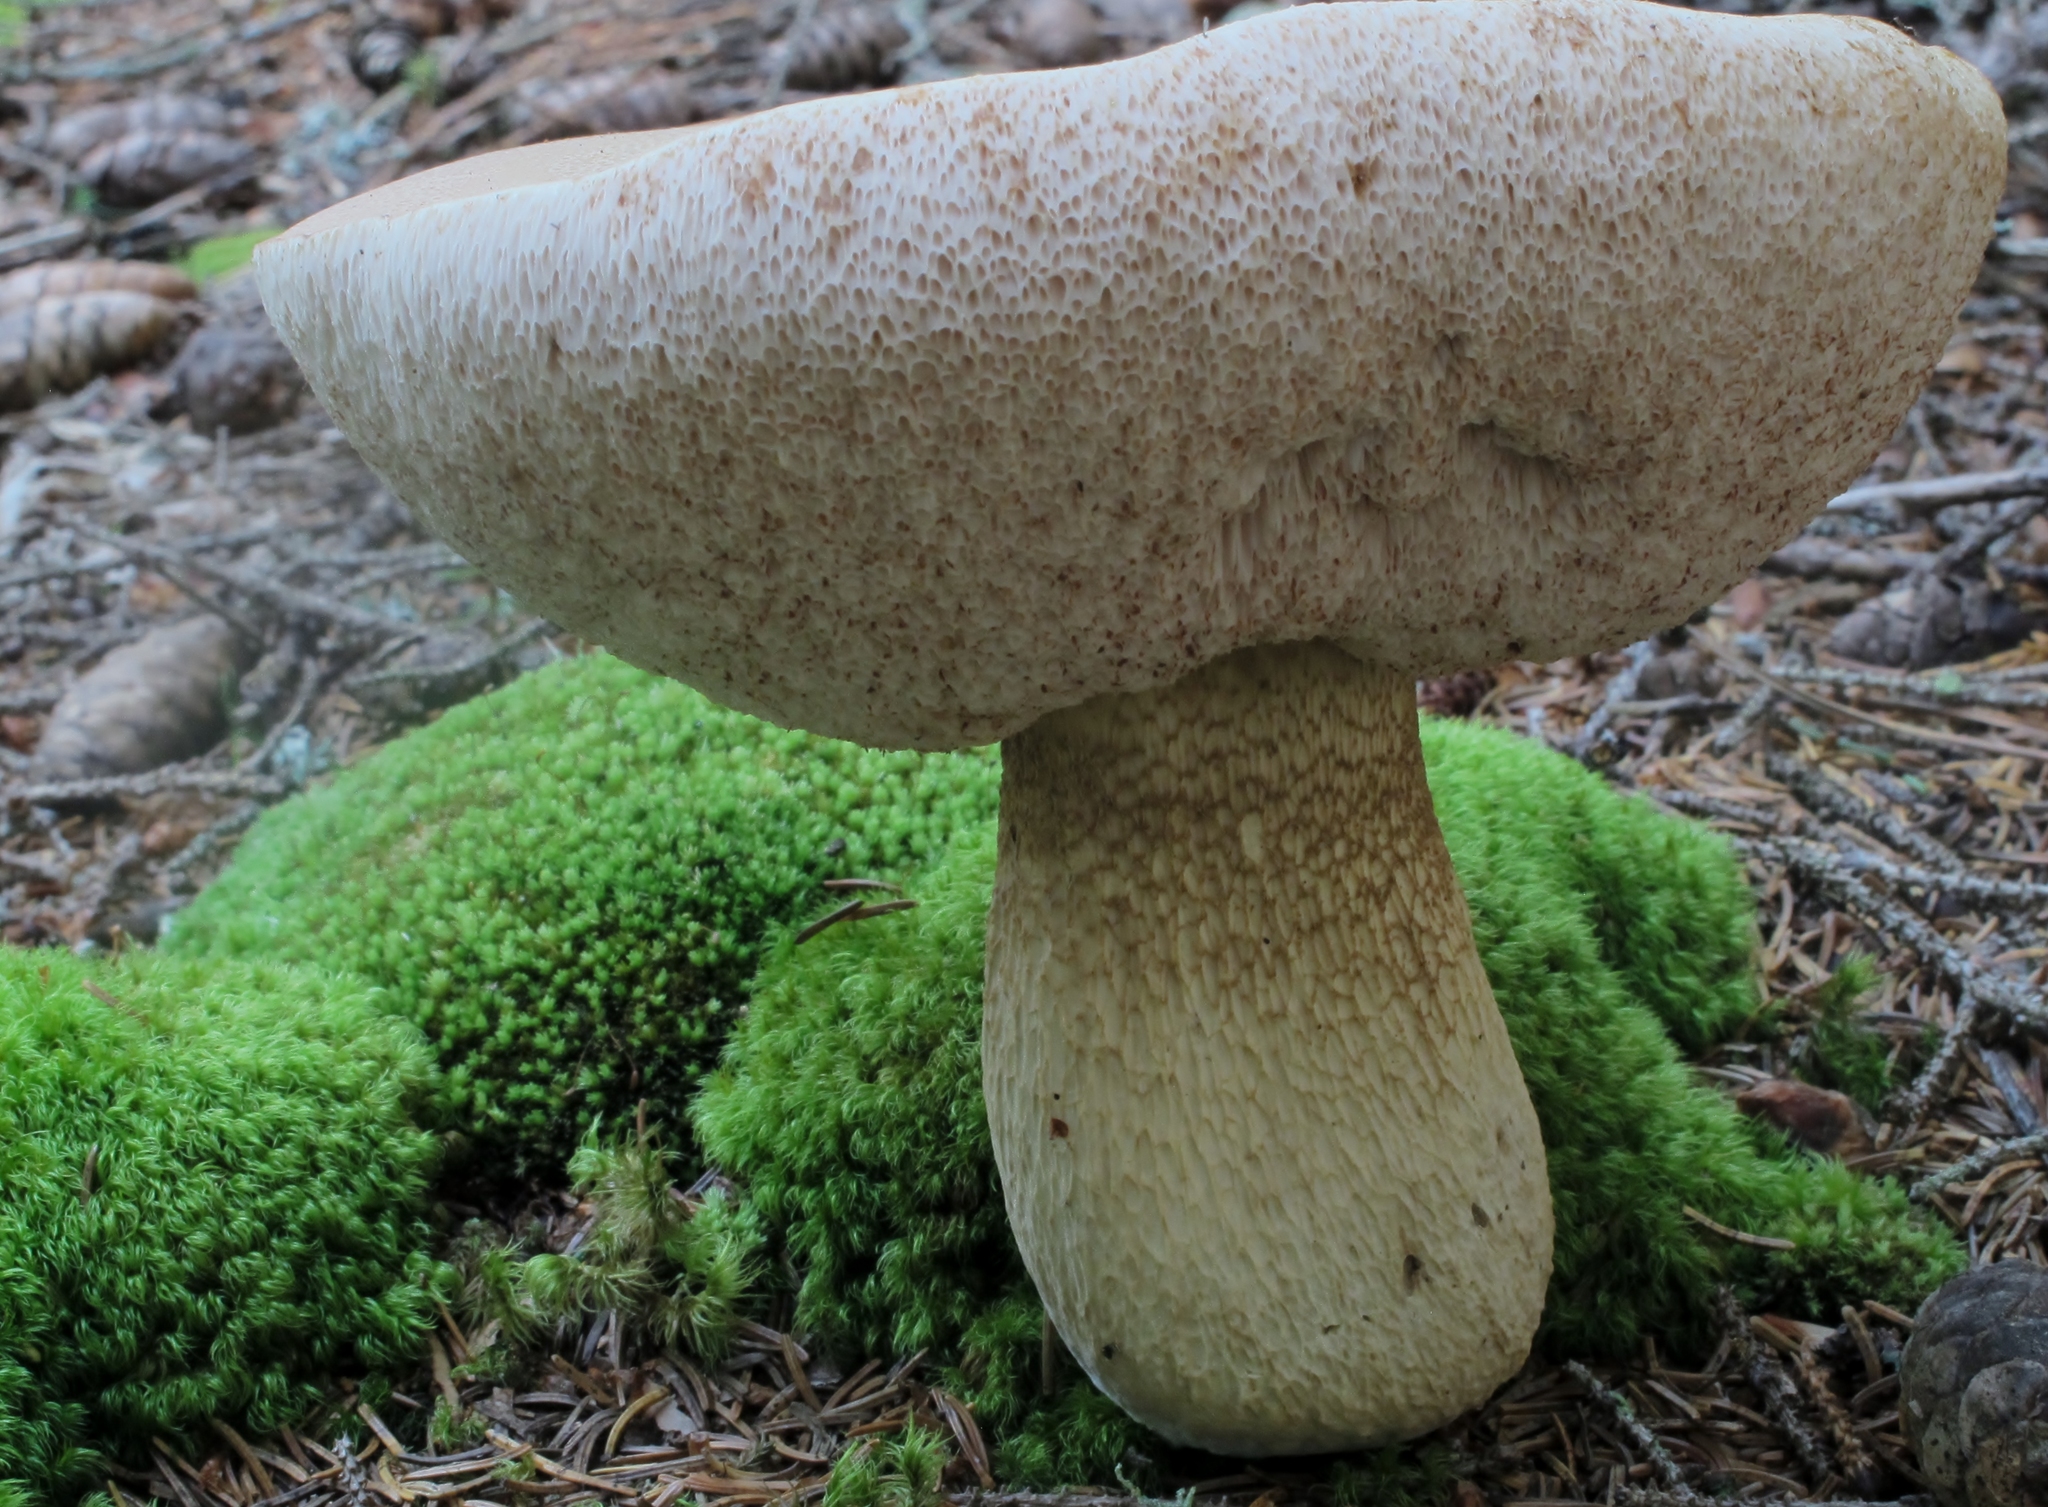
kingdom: Fungi
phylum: Basidiomycota
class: Agaricomycetes
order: Boletales
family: Boletaceae
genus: Tylopilus
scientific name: Tylopilus felleus
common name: Bitter bolete
